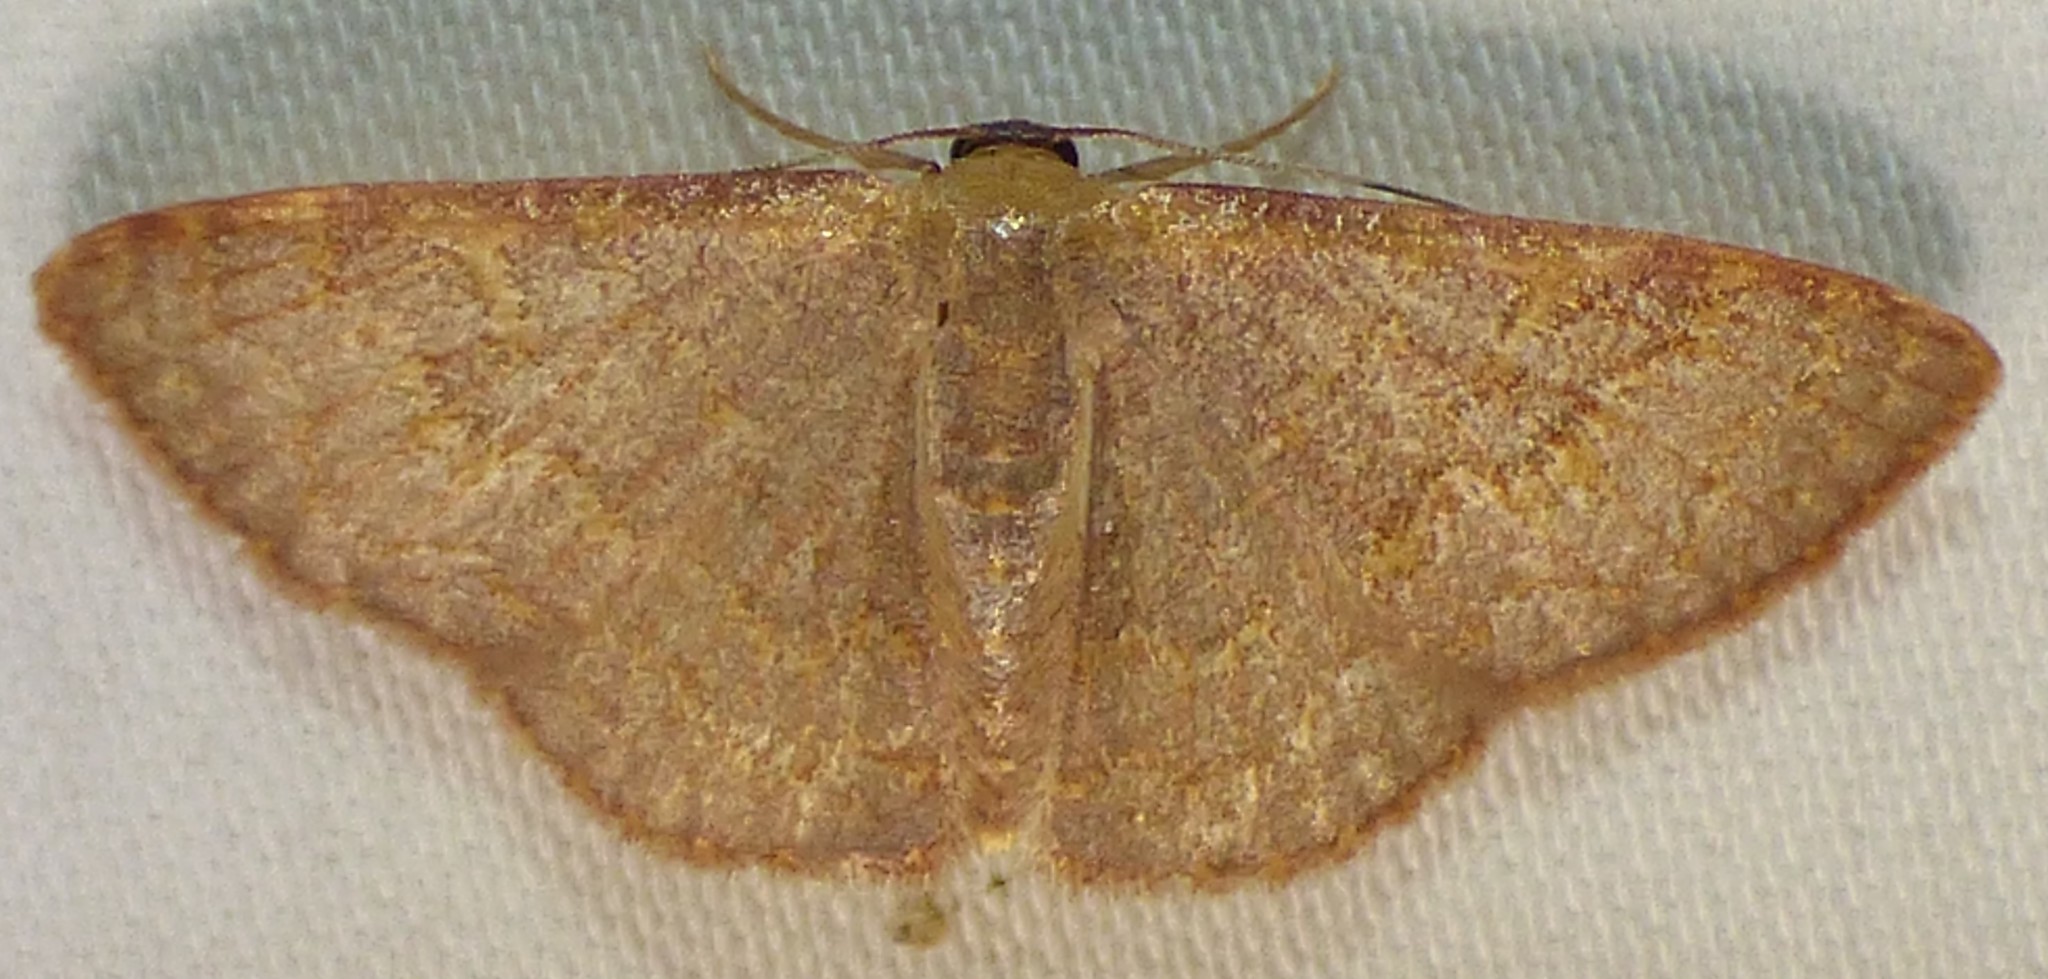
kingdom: Animalia
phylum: Arthropoda
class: Insecta
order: Lepidoptera
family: Geometridae
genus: Leptostales
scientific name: Leptostales pannaria
